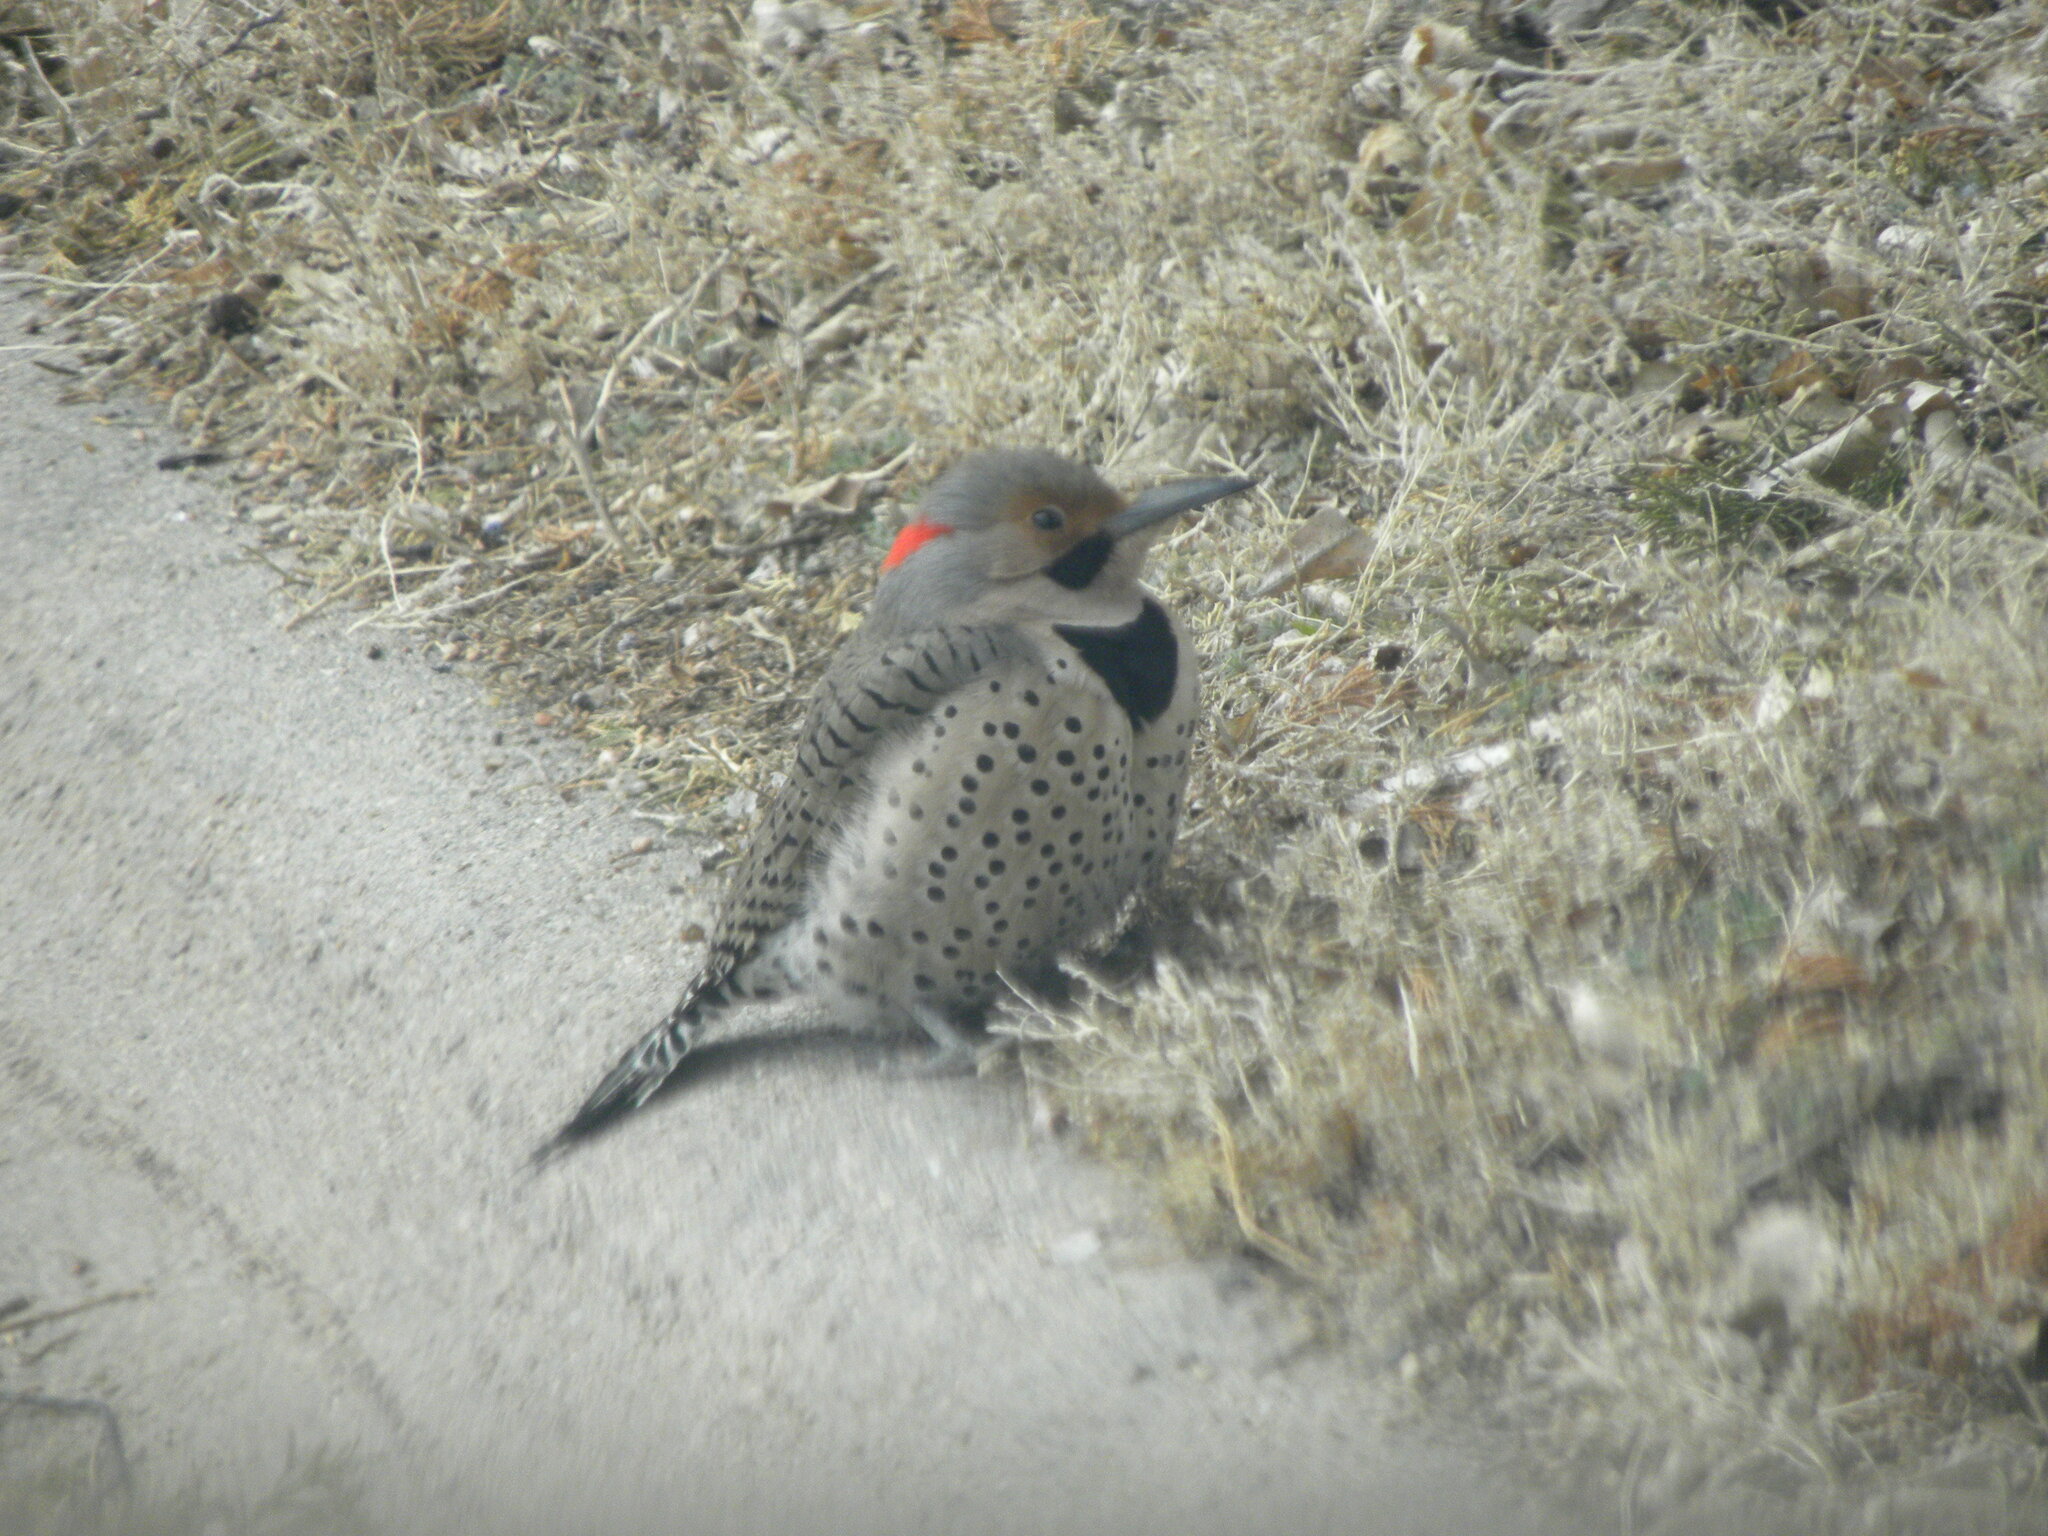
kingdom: Animalia
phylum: Chordata
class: Aves
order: Piciformes
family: Picidae
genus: Colaptes
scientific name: Colaptes auratus
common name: Northern flicker
